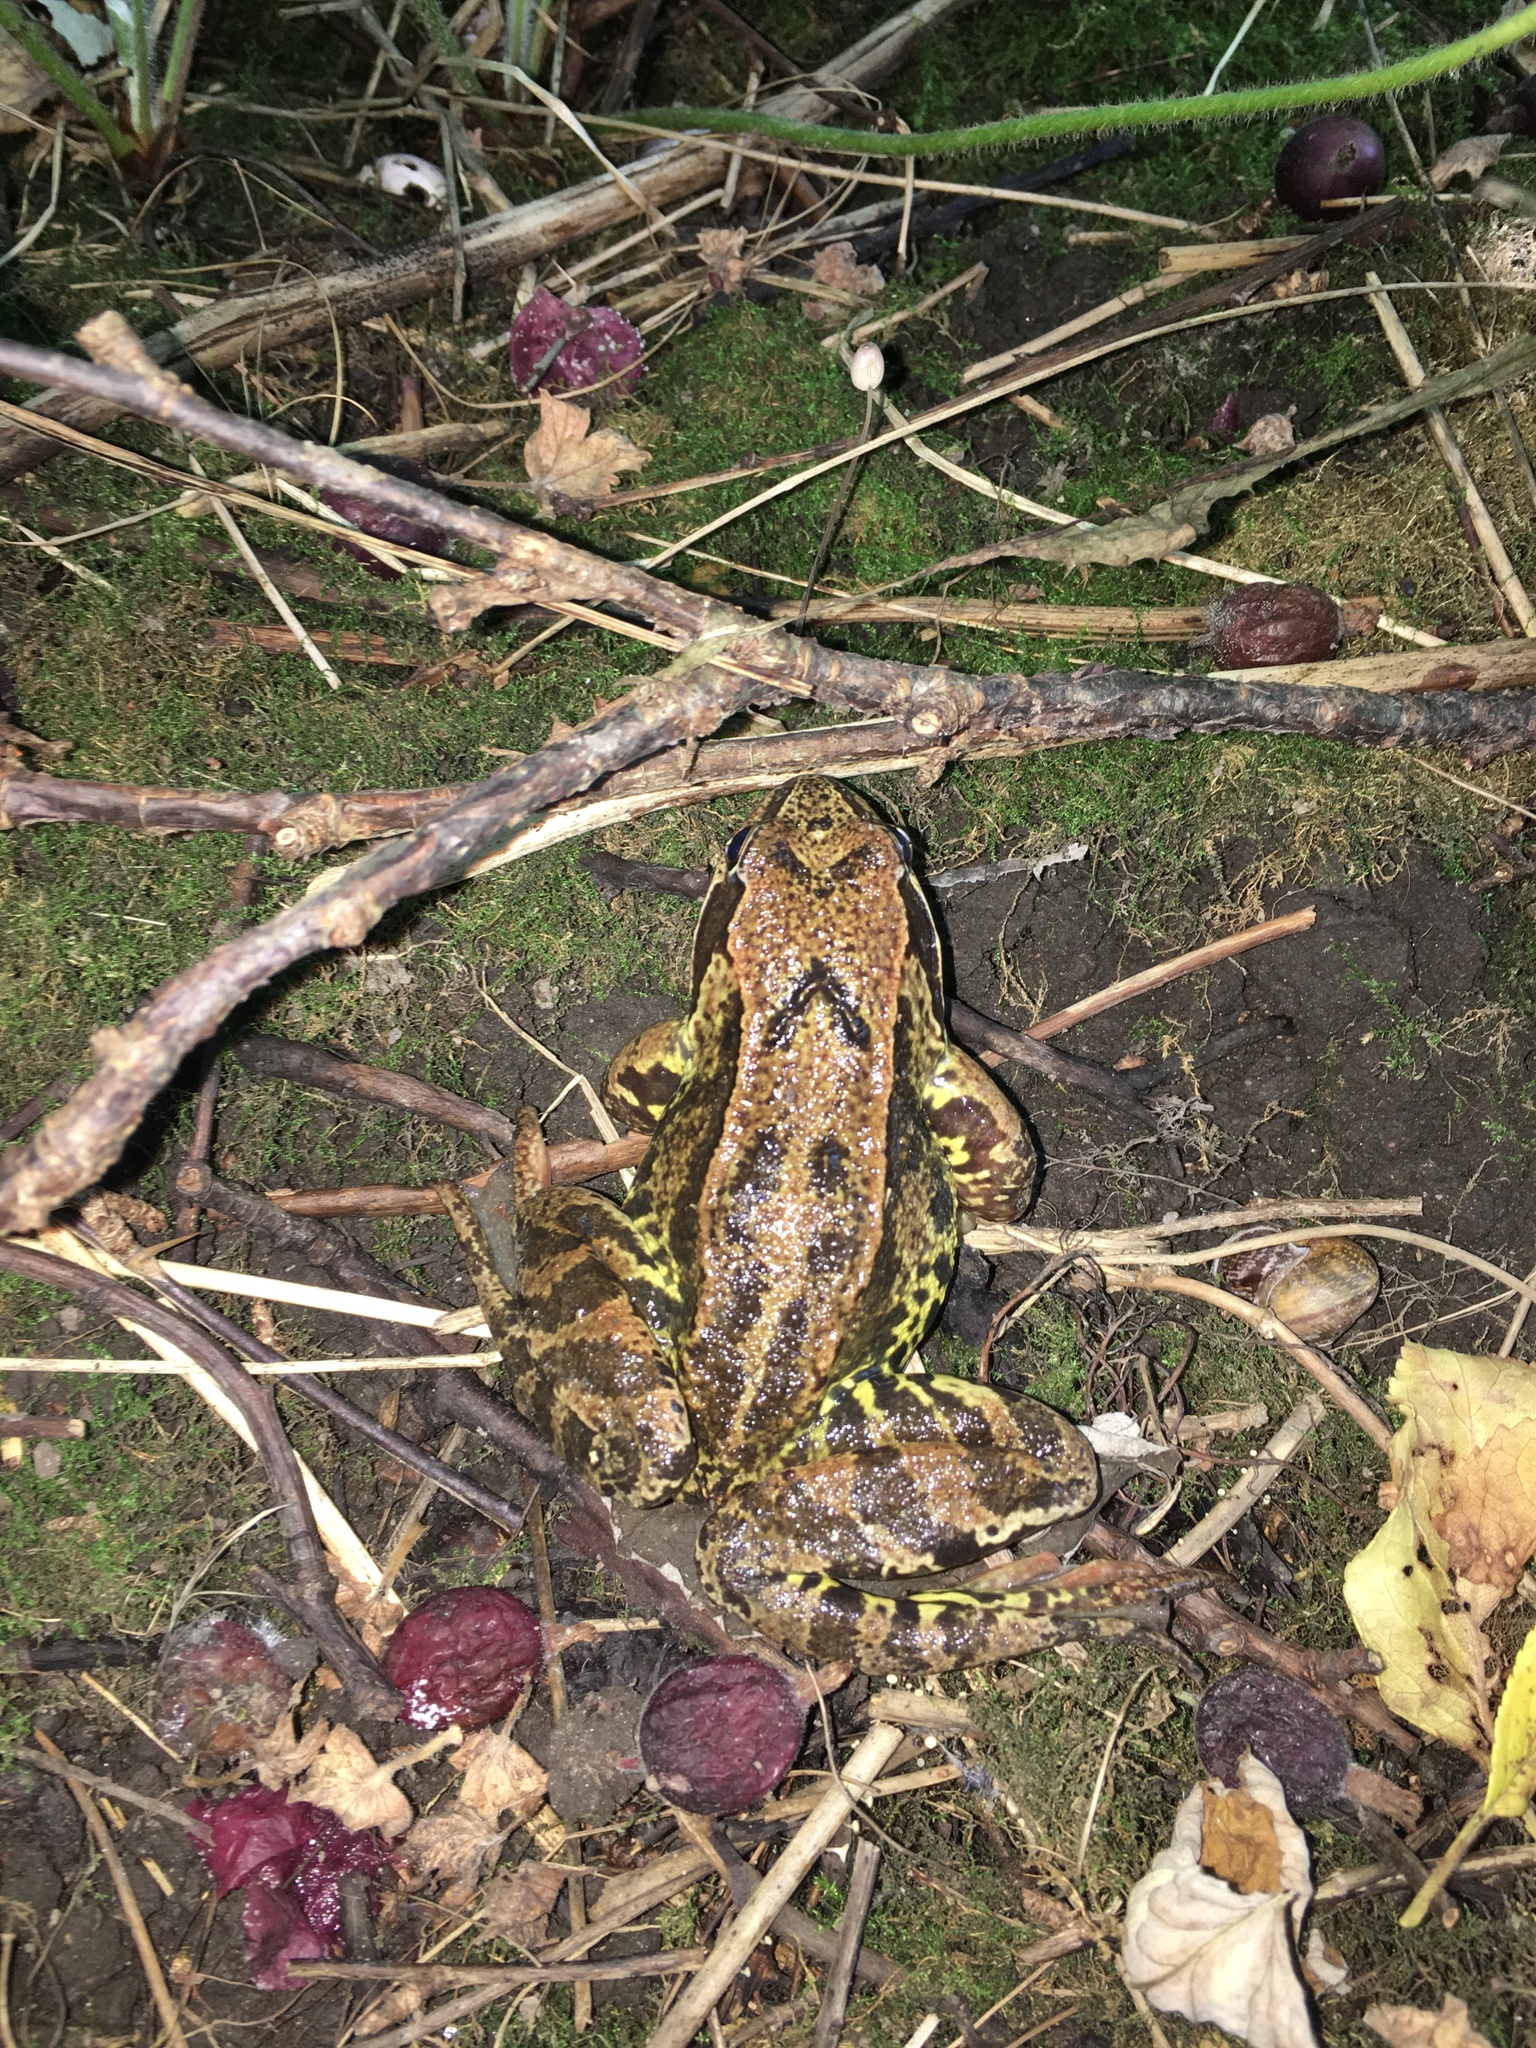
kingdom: Animalia
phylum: Chordata
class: Amphibia
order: Anura
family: Ranidae
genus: Rana
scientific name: Rana temporaria
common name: Common frog
